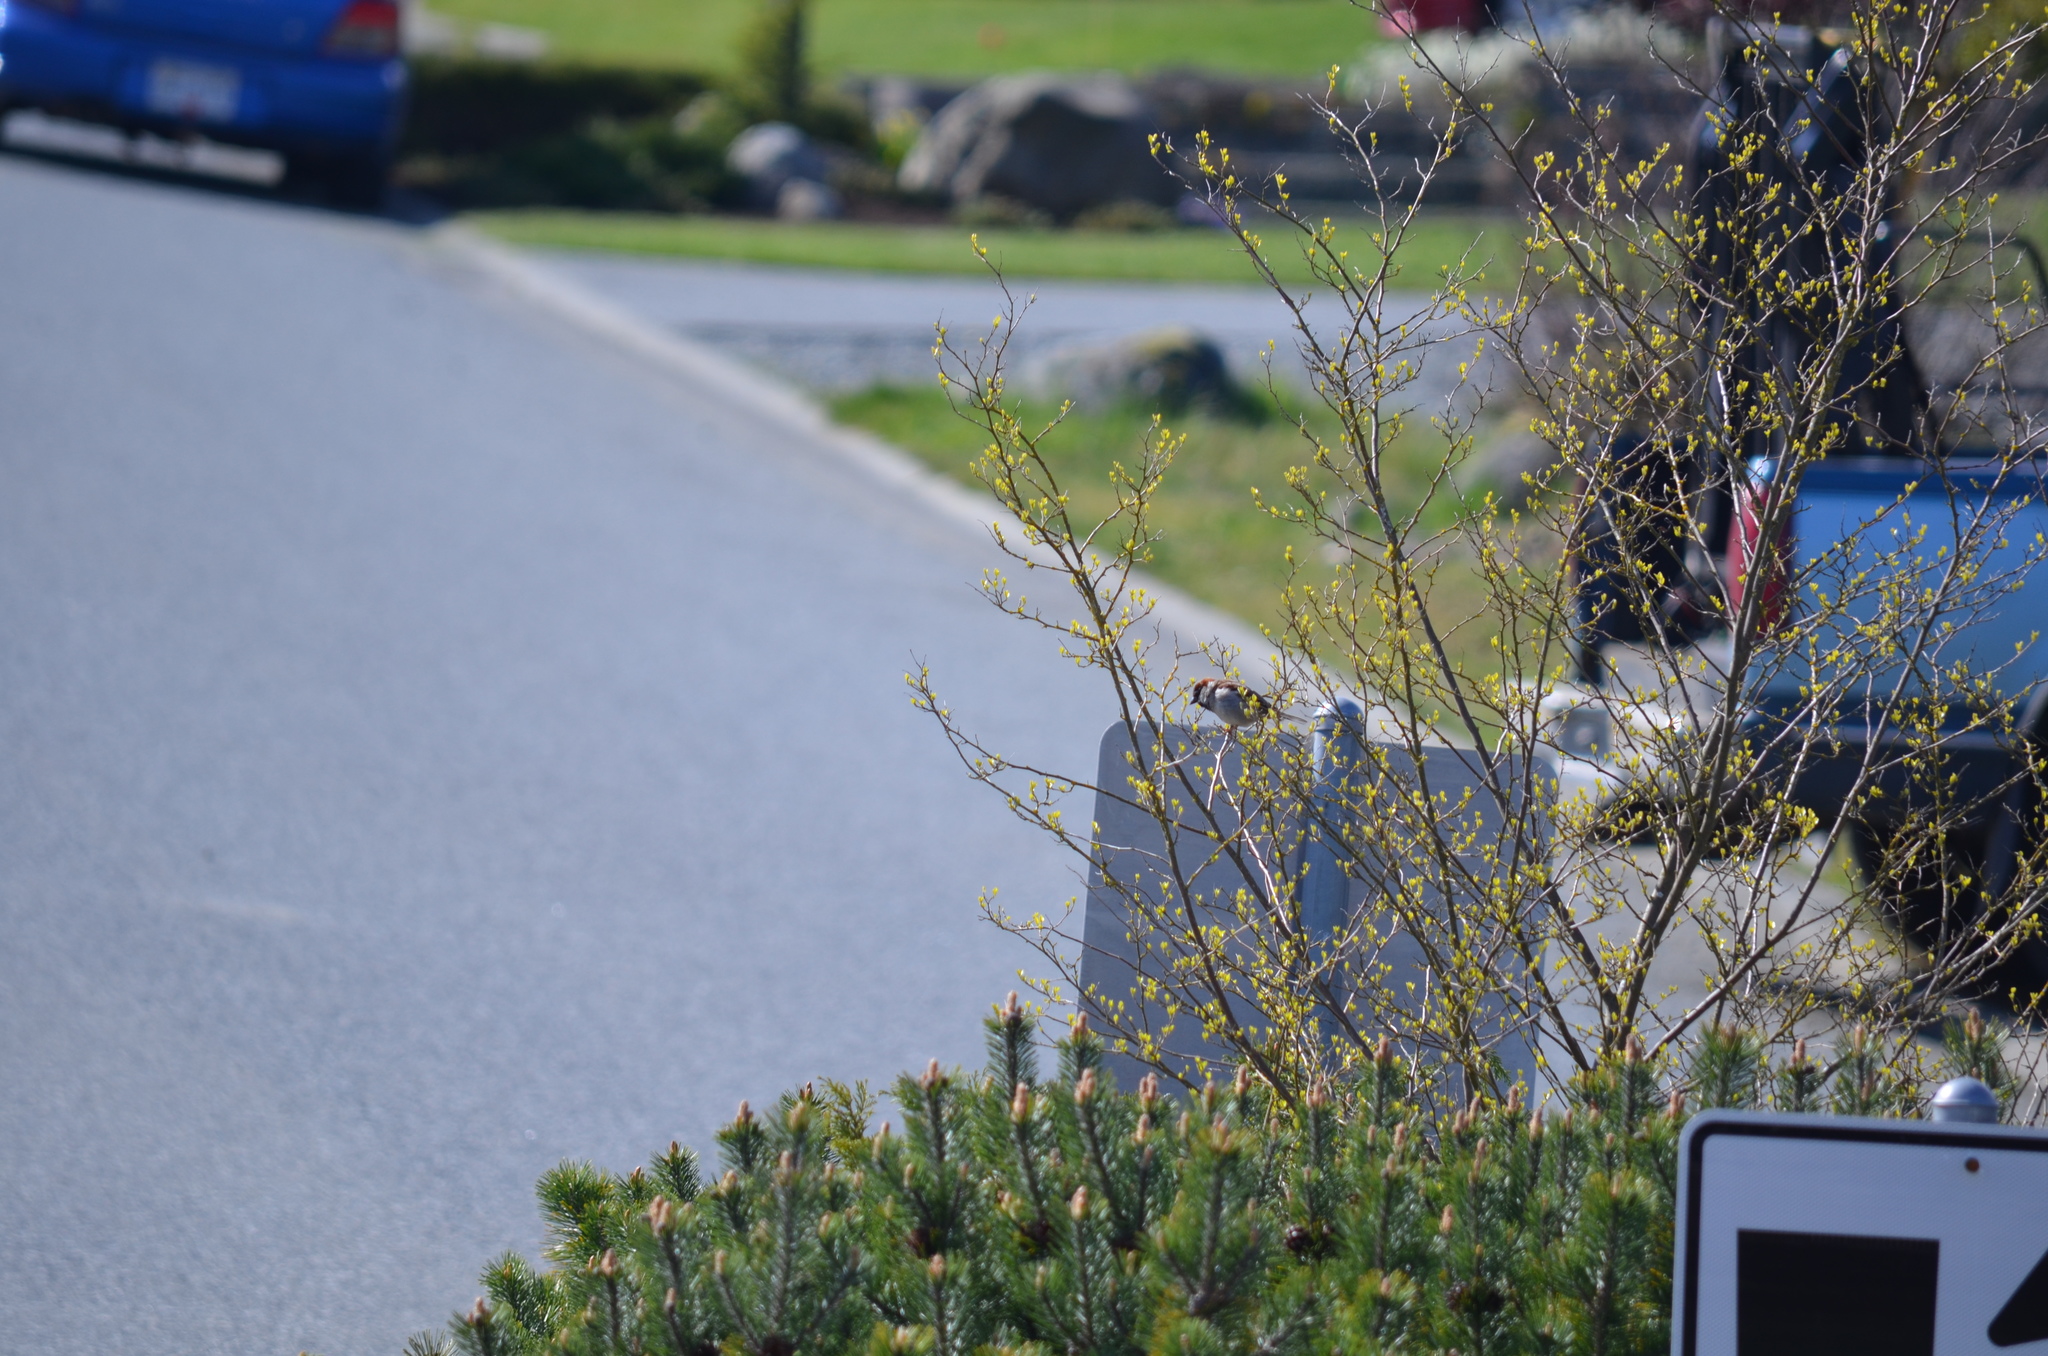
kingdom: Animalia
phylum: Chordata
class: Aves
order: Passeriformes
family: Passeridae
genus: Passer
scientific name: Passer domesticus
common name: House sparrow
